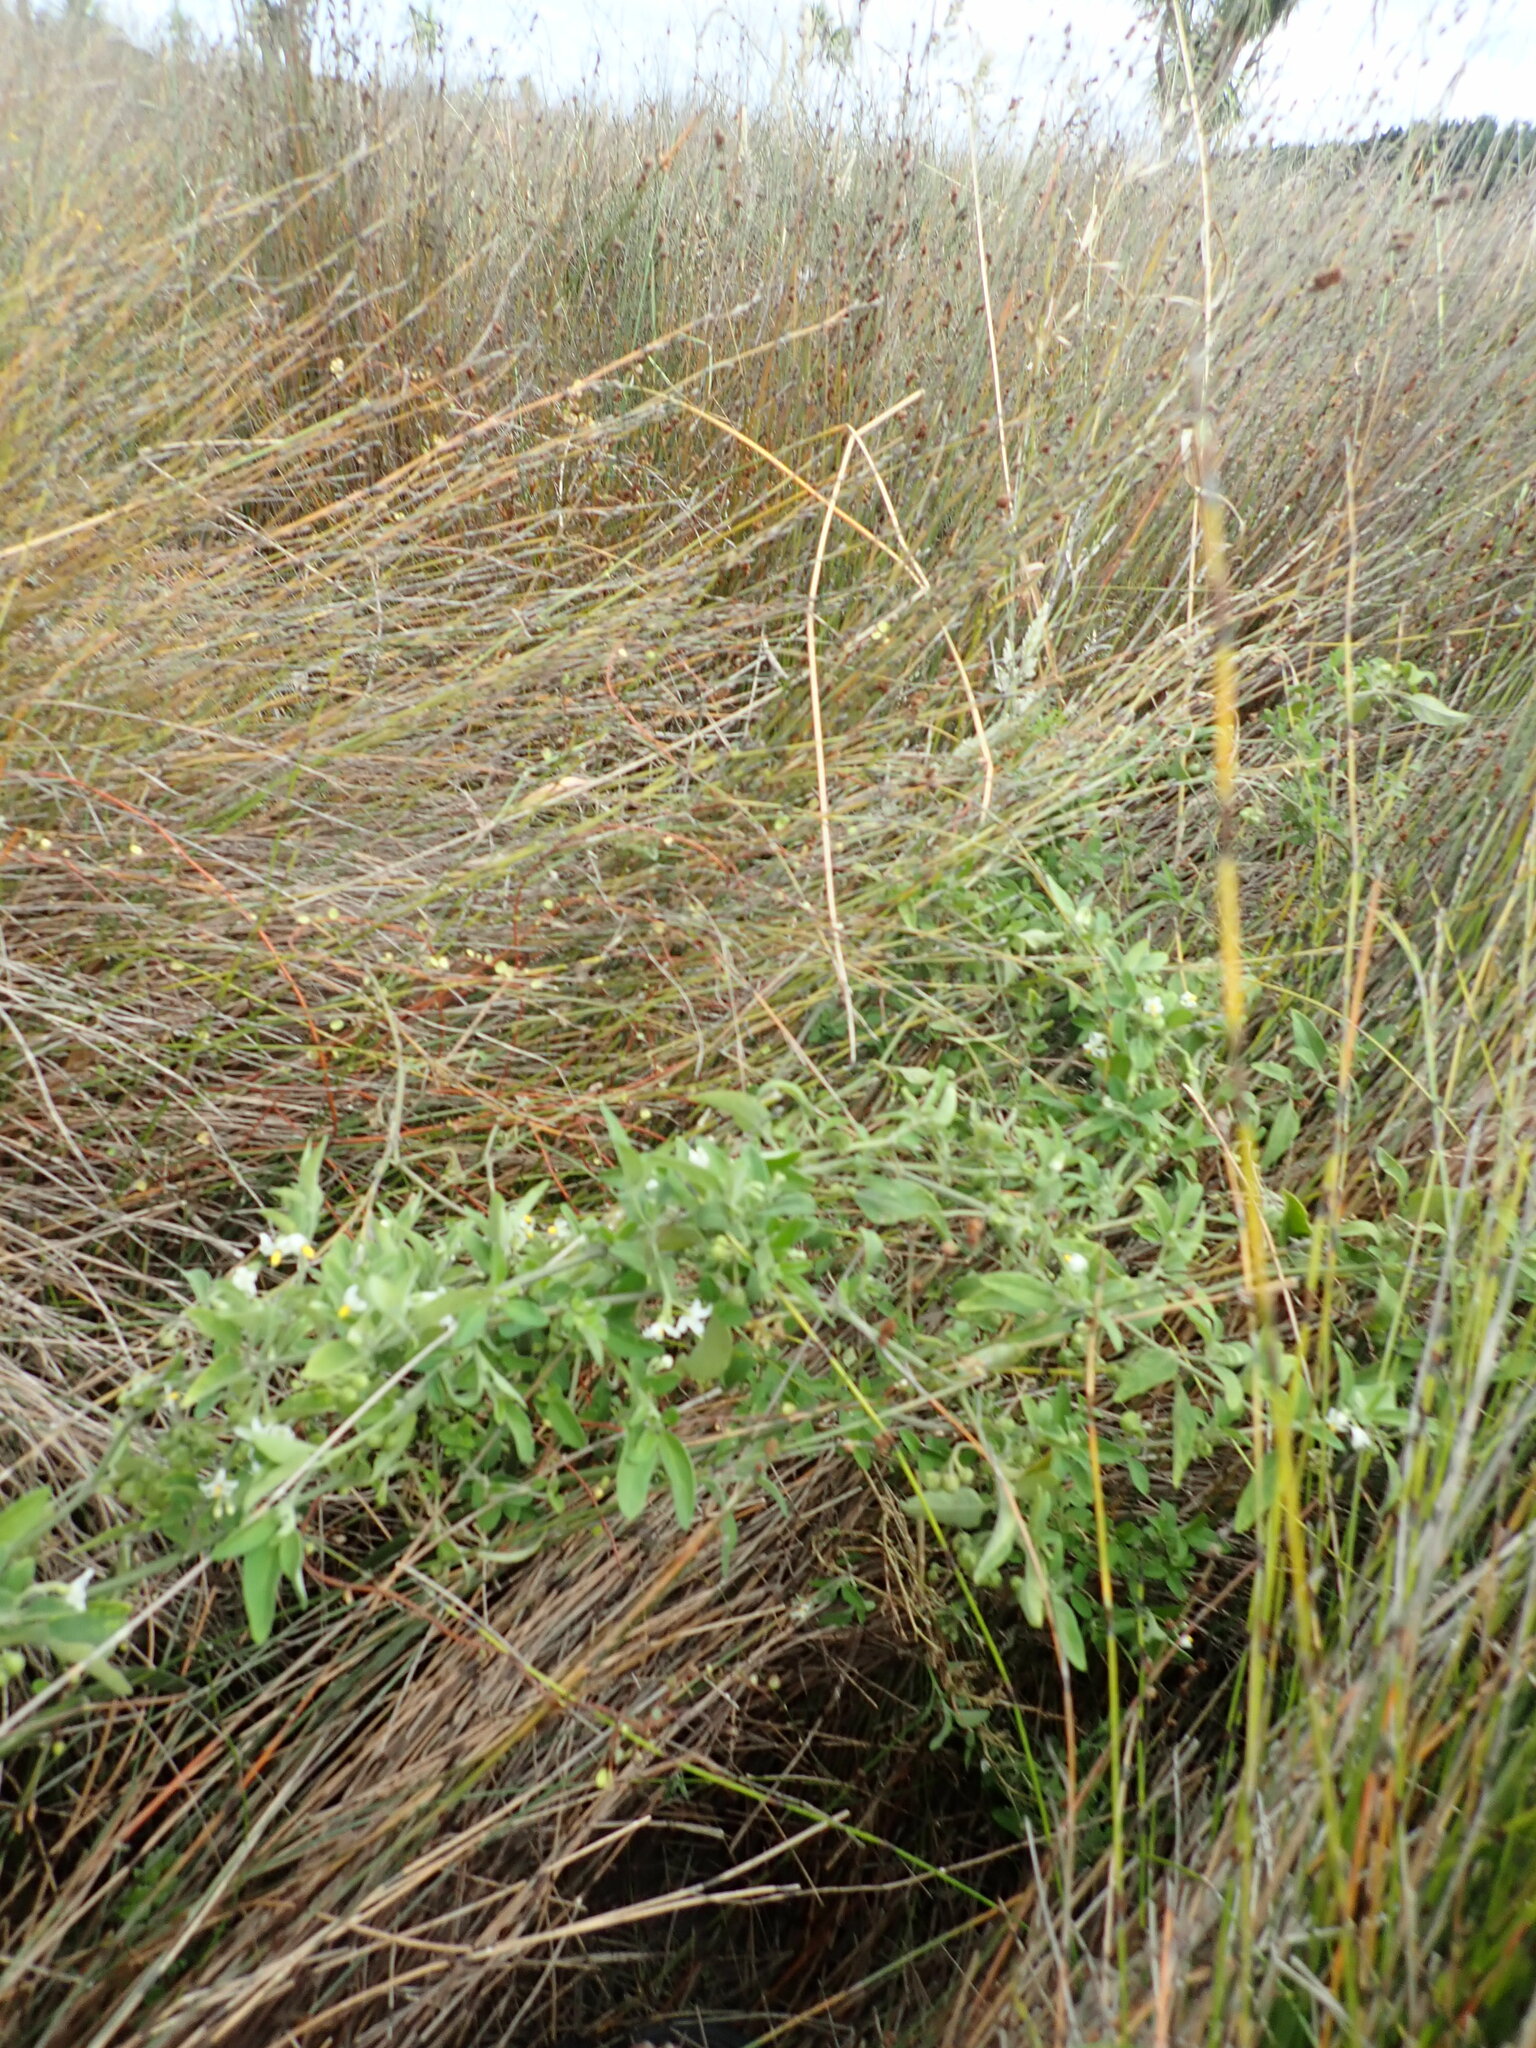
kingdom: Plantae
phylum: Tracheophyta
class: Magnoliopsida
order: Solanales
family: Solanaceae
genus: Solanum
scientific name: Solanum chenopodioides
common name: Tall nightshade
